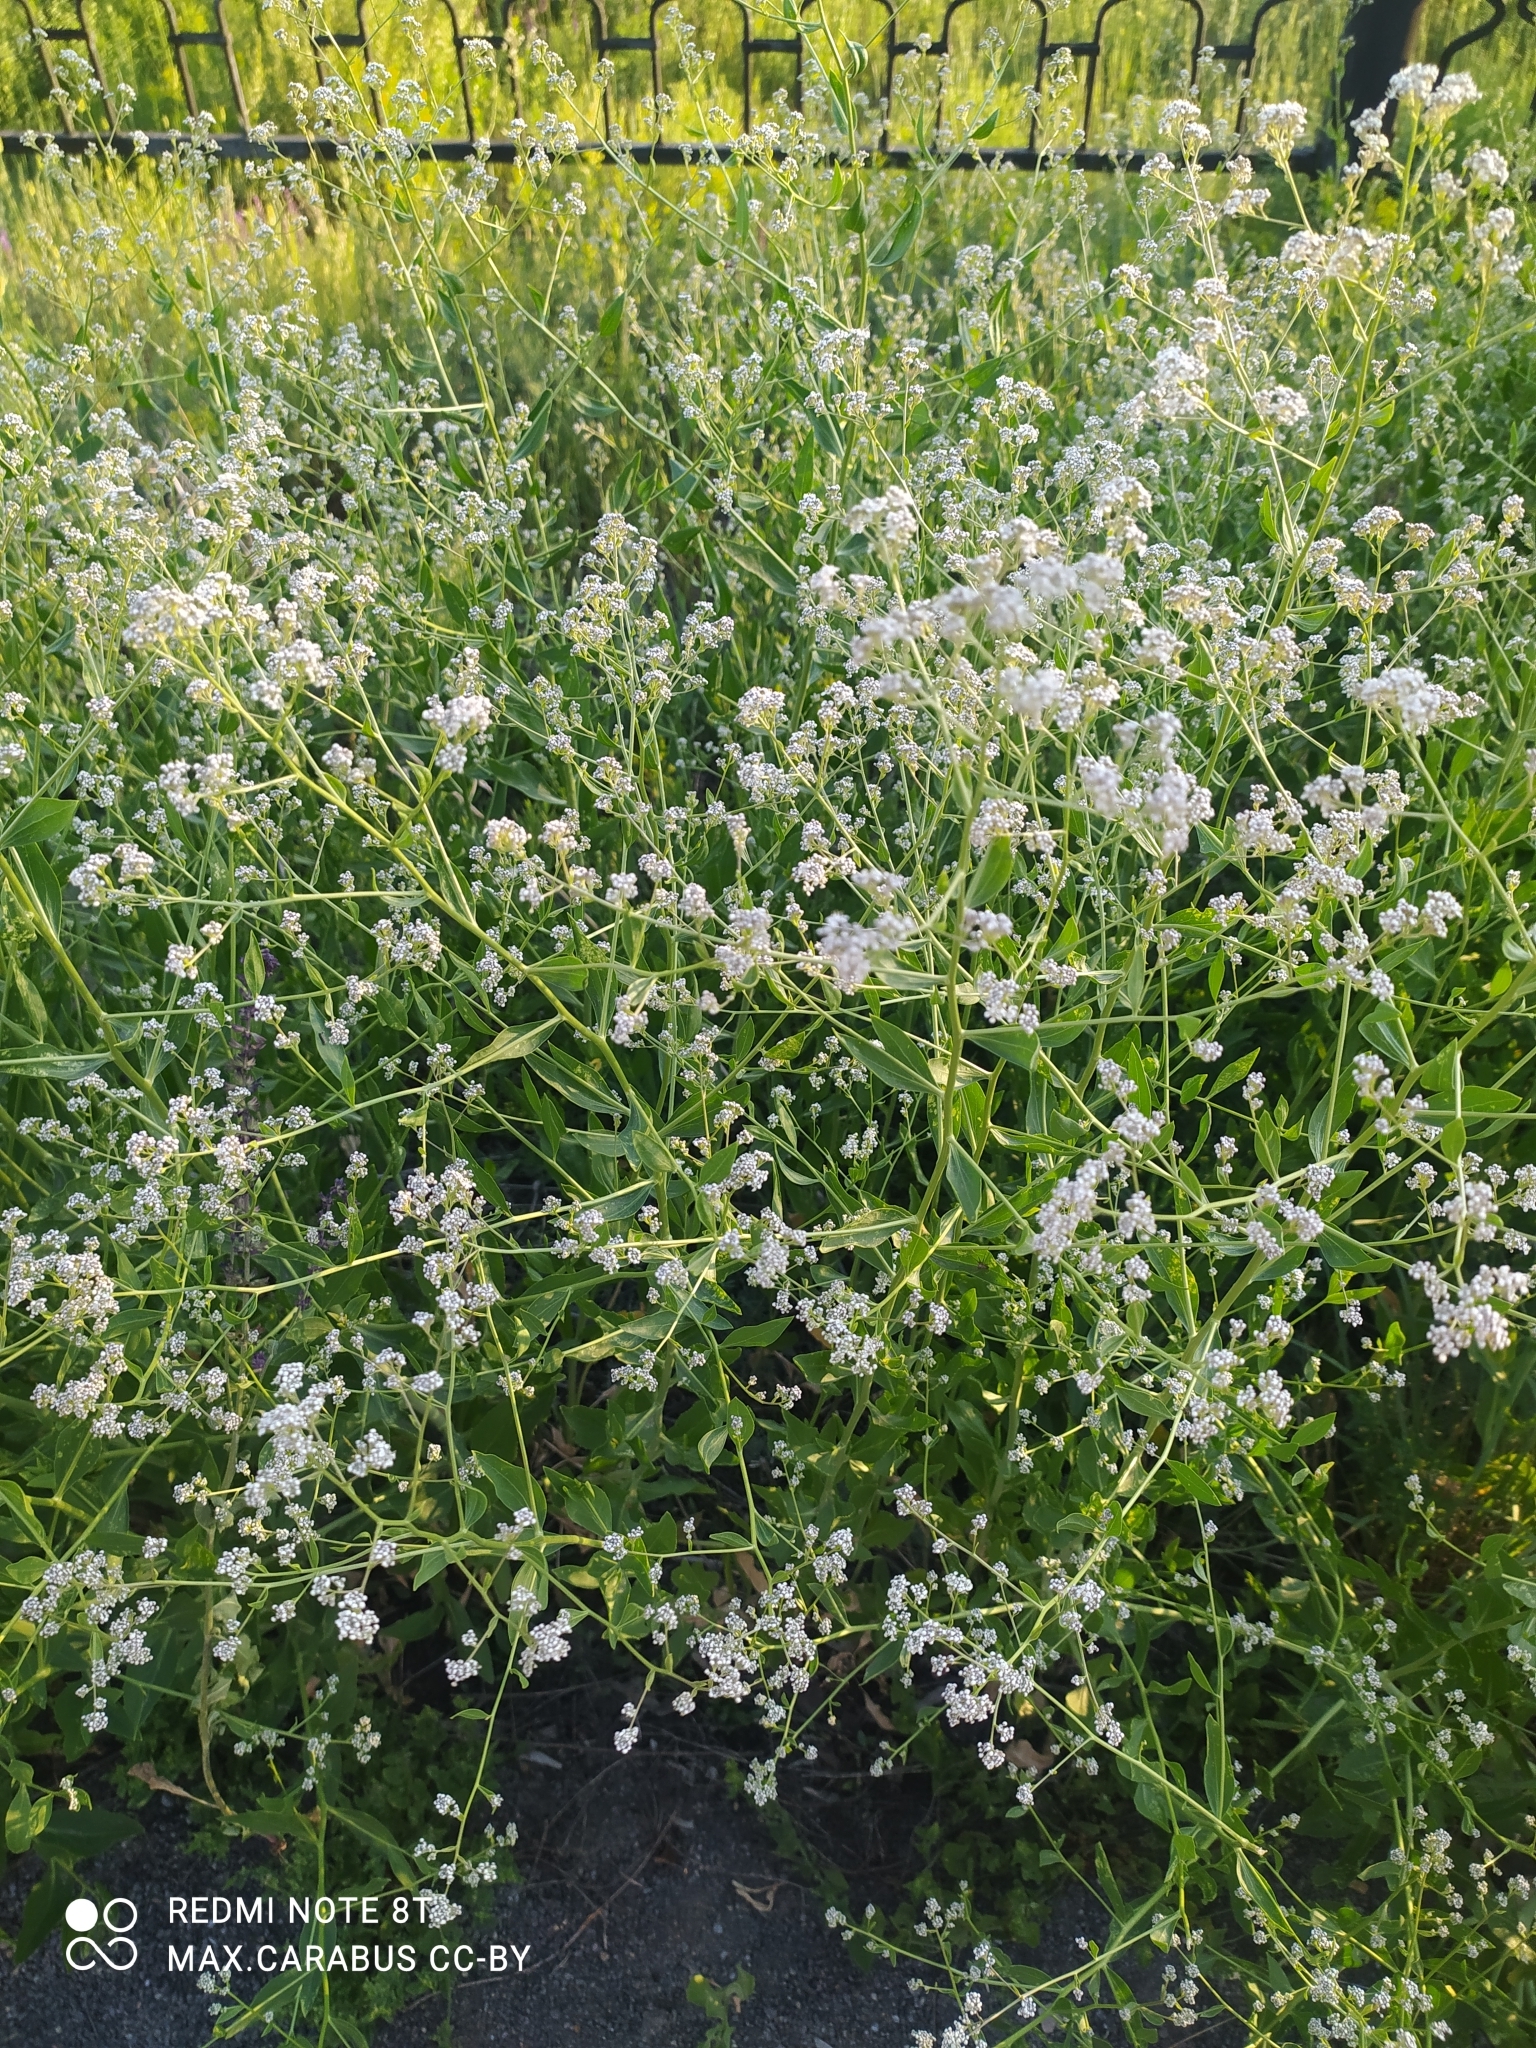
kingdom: Plantae
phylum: Tracheophyta
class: Magnoliopsida
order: Brassicales
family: Brassicaceae
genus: Lepidium
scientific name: Lepidium latifolium
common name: Dittander
